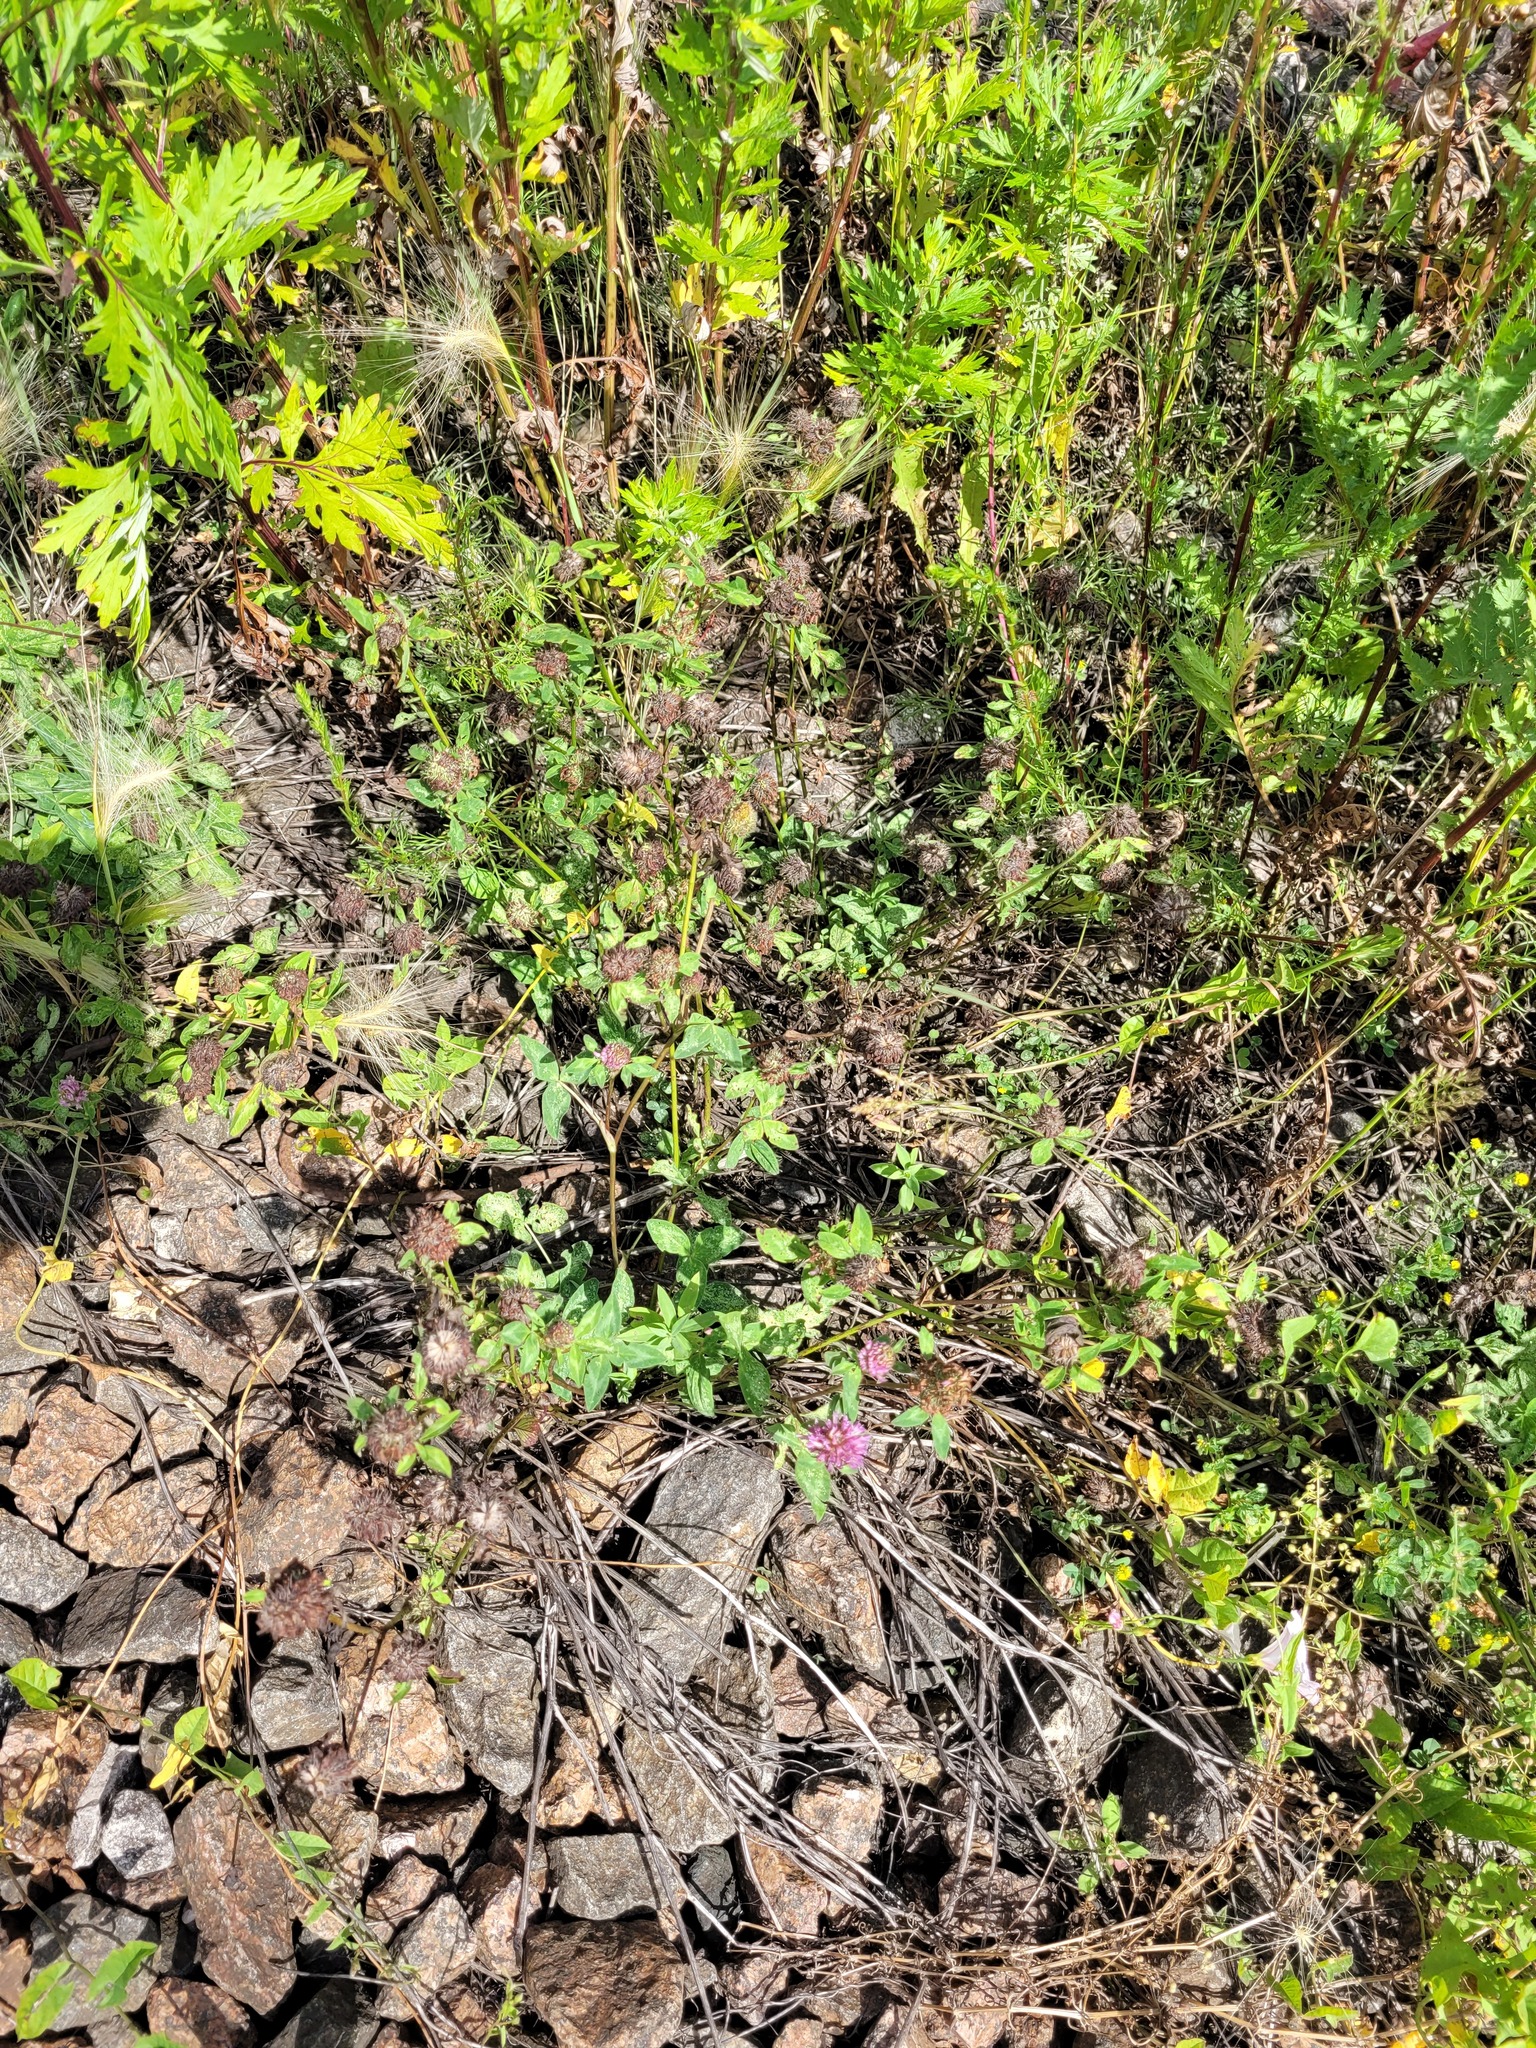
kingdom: Plantae
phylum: Tracheophyta
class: Magnoliopsida
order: Fabales
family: Fabaceae
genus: Trifolium
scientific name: Trifolium pratense
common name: Red clover
